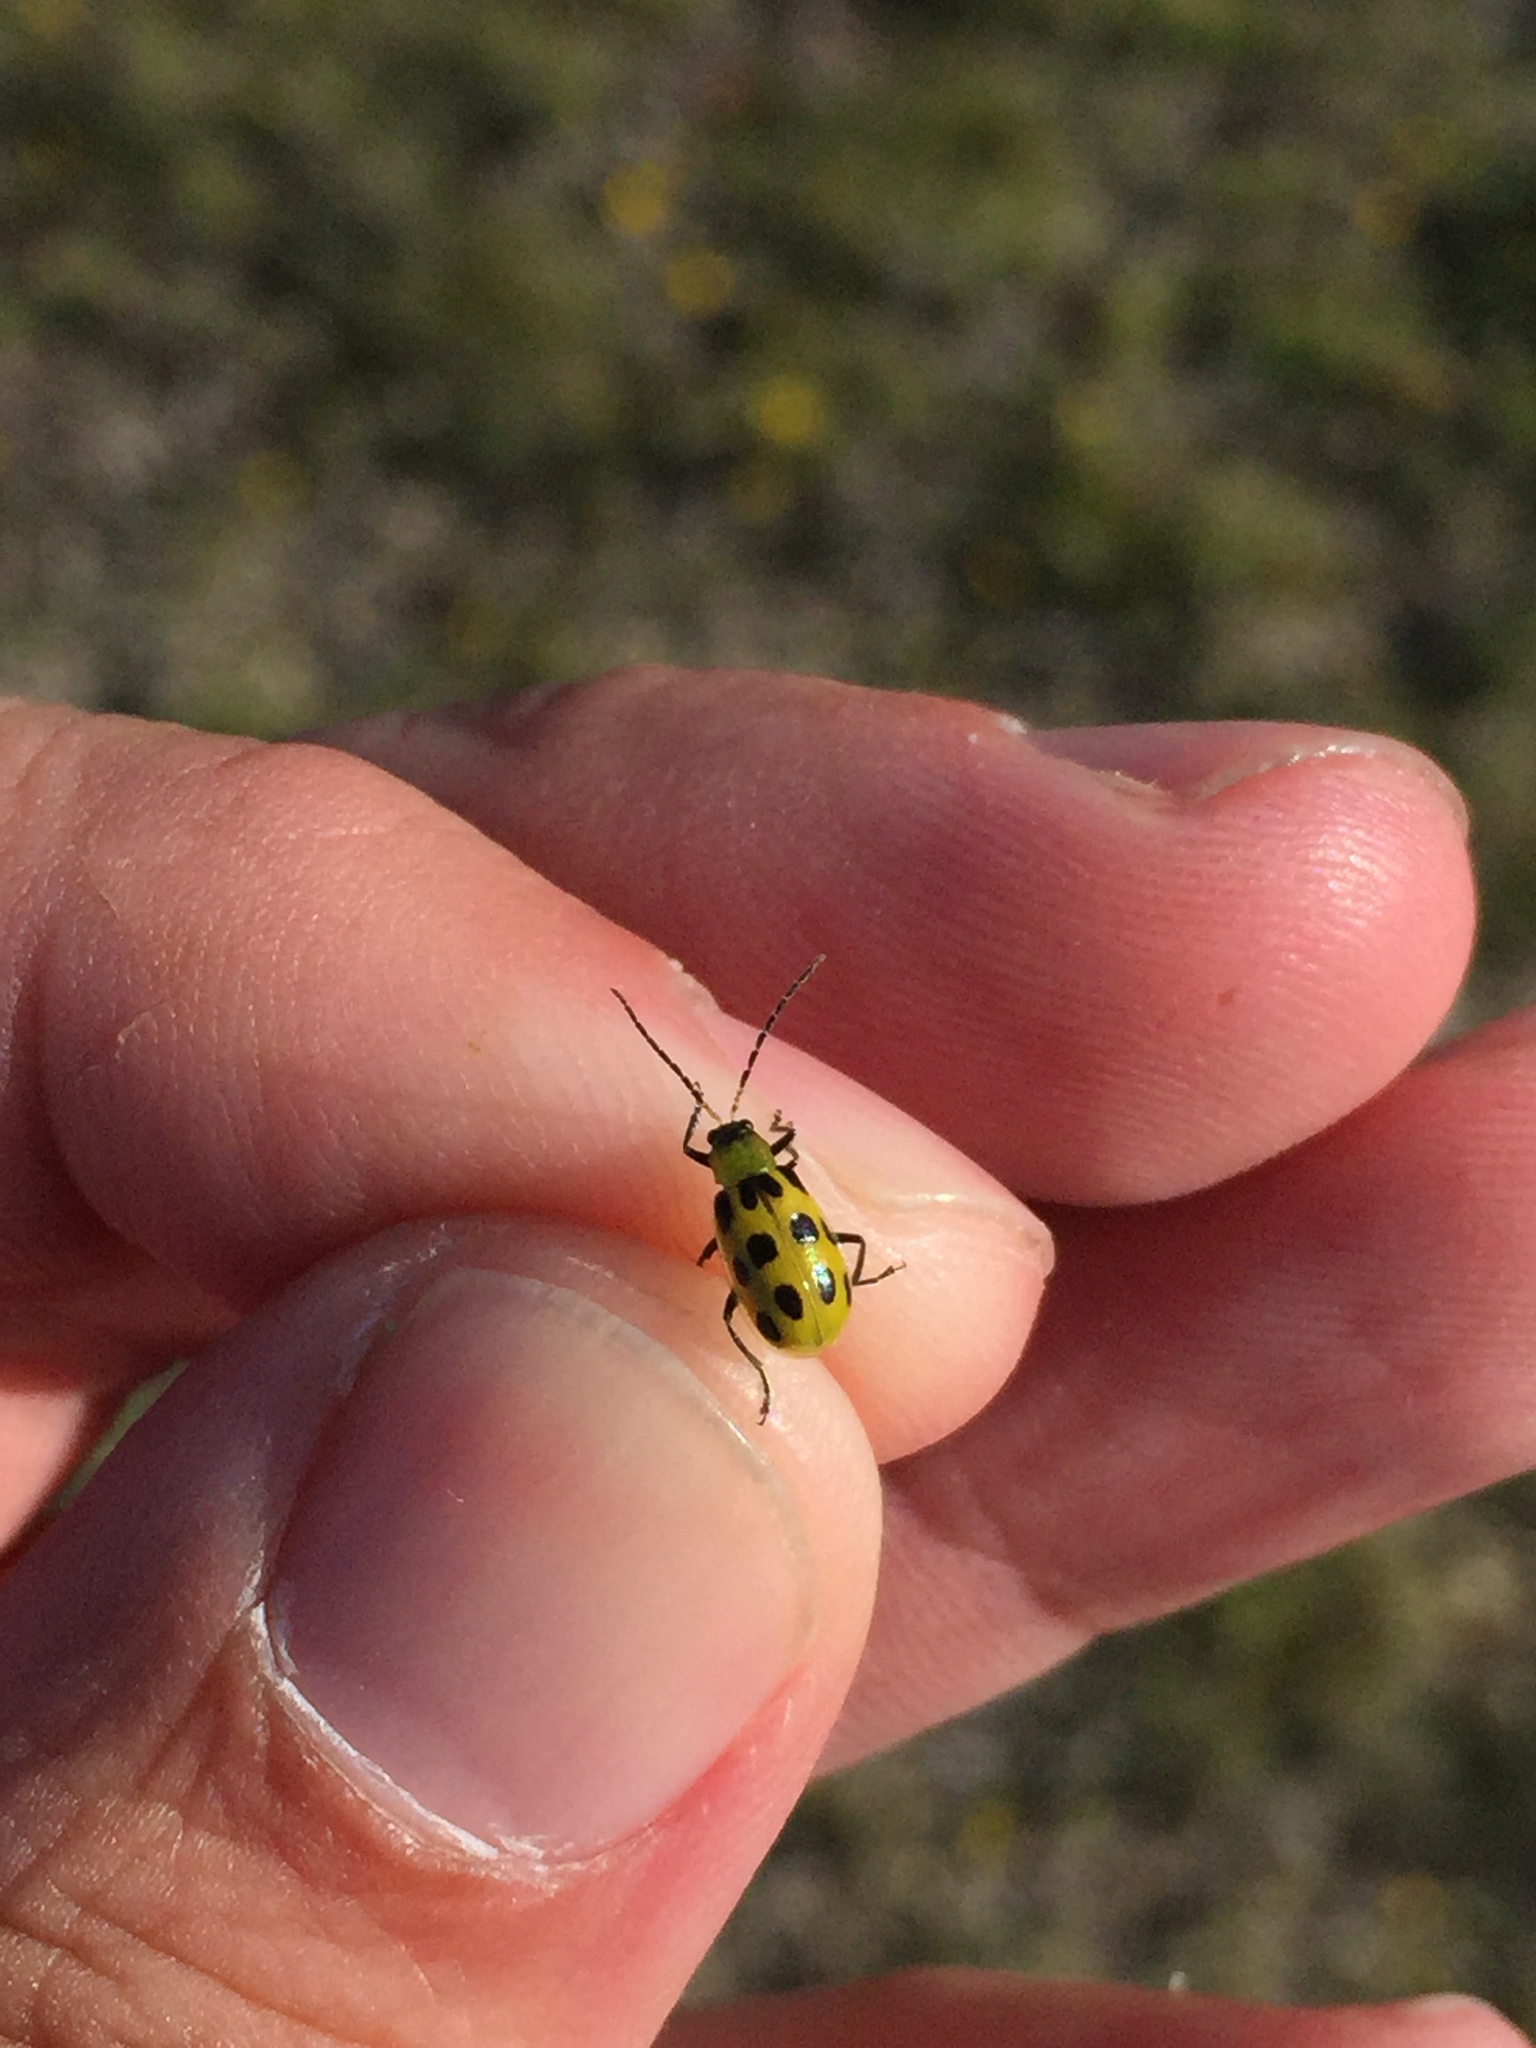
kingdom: Animalia
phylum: Arthropoda
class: Insecta
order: Coleoptera
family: Chrysomelidae
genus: Diabrotica
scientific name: Diabrotica undecimpunctata
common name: Spotted cucumber beetle
